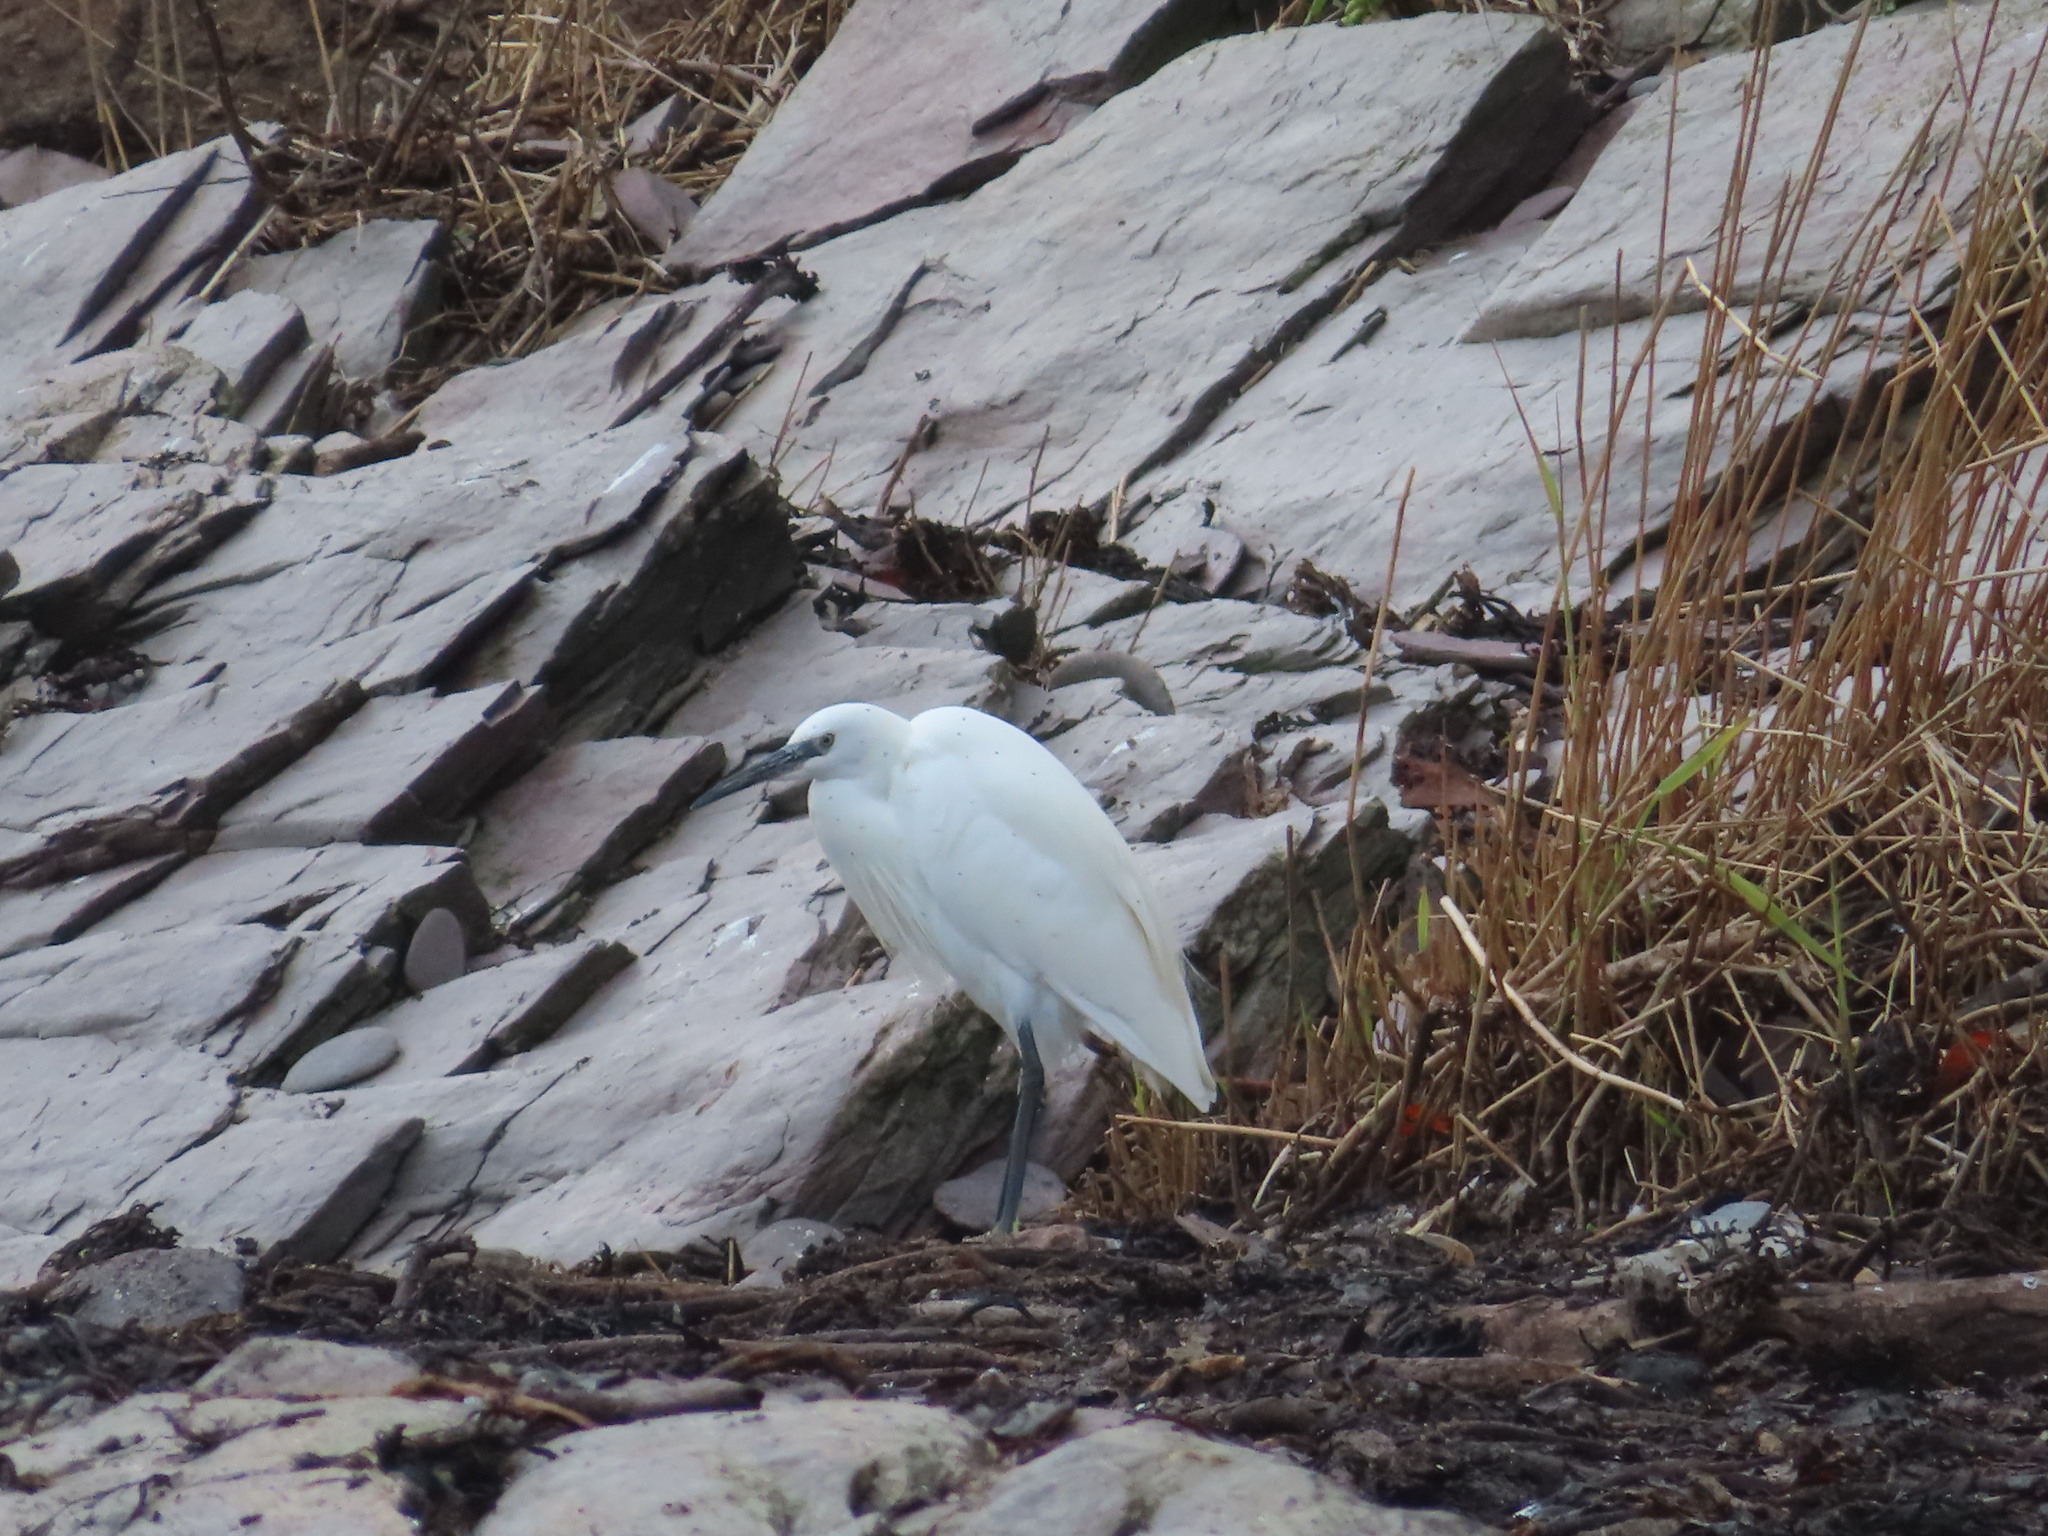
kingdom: Animalia
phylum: Chordata
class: Aves
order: Pelecaniformes
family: Ardeidae
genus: Egretta
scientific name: Egretta garzetta
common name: Little egret
